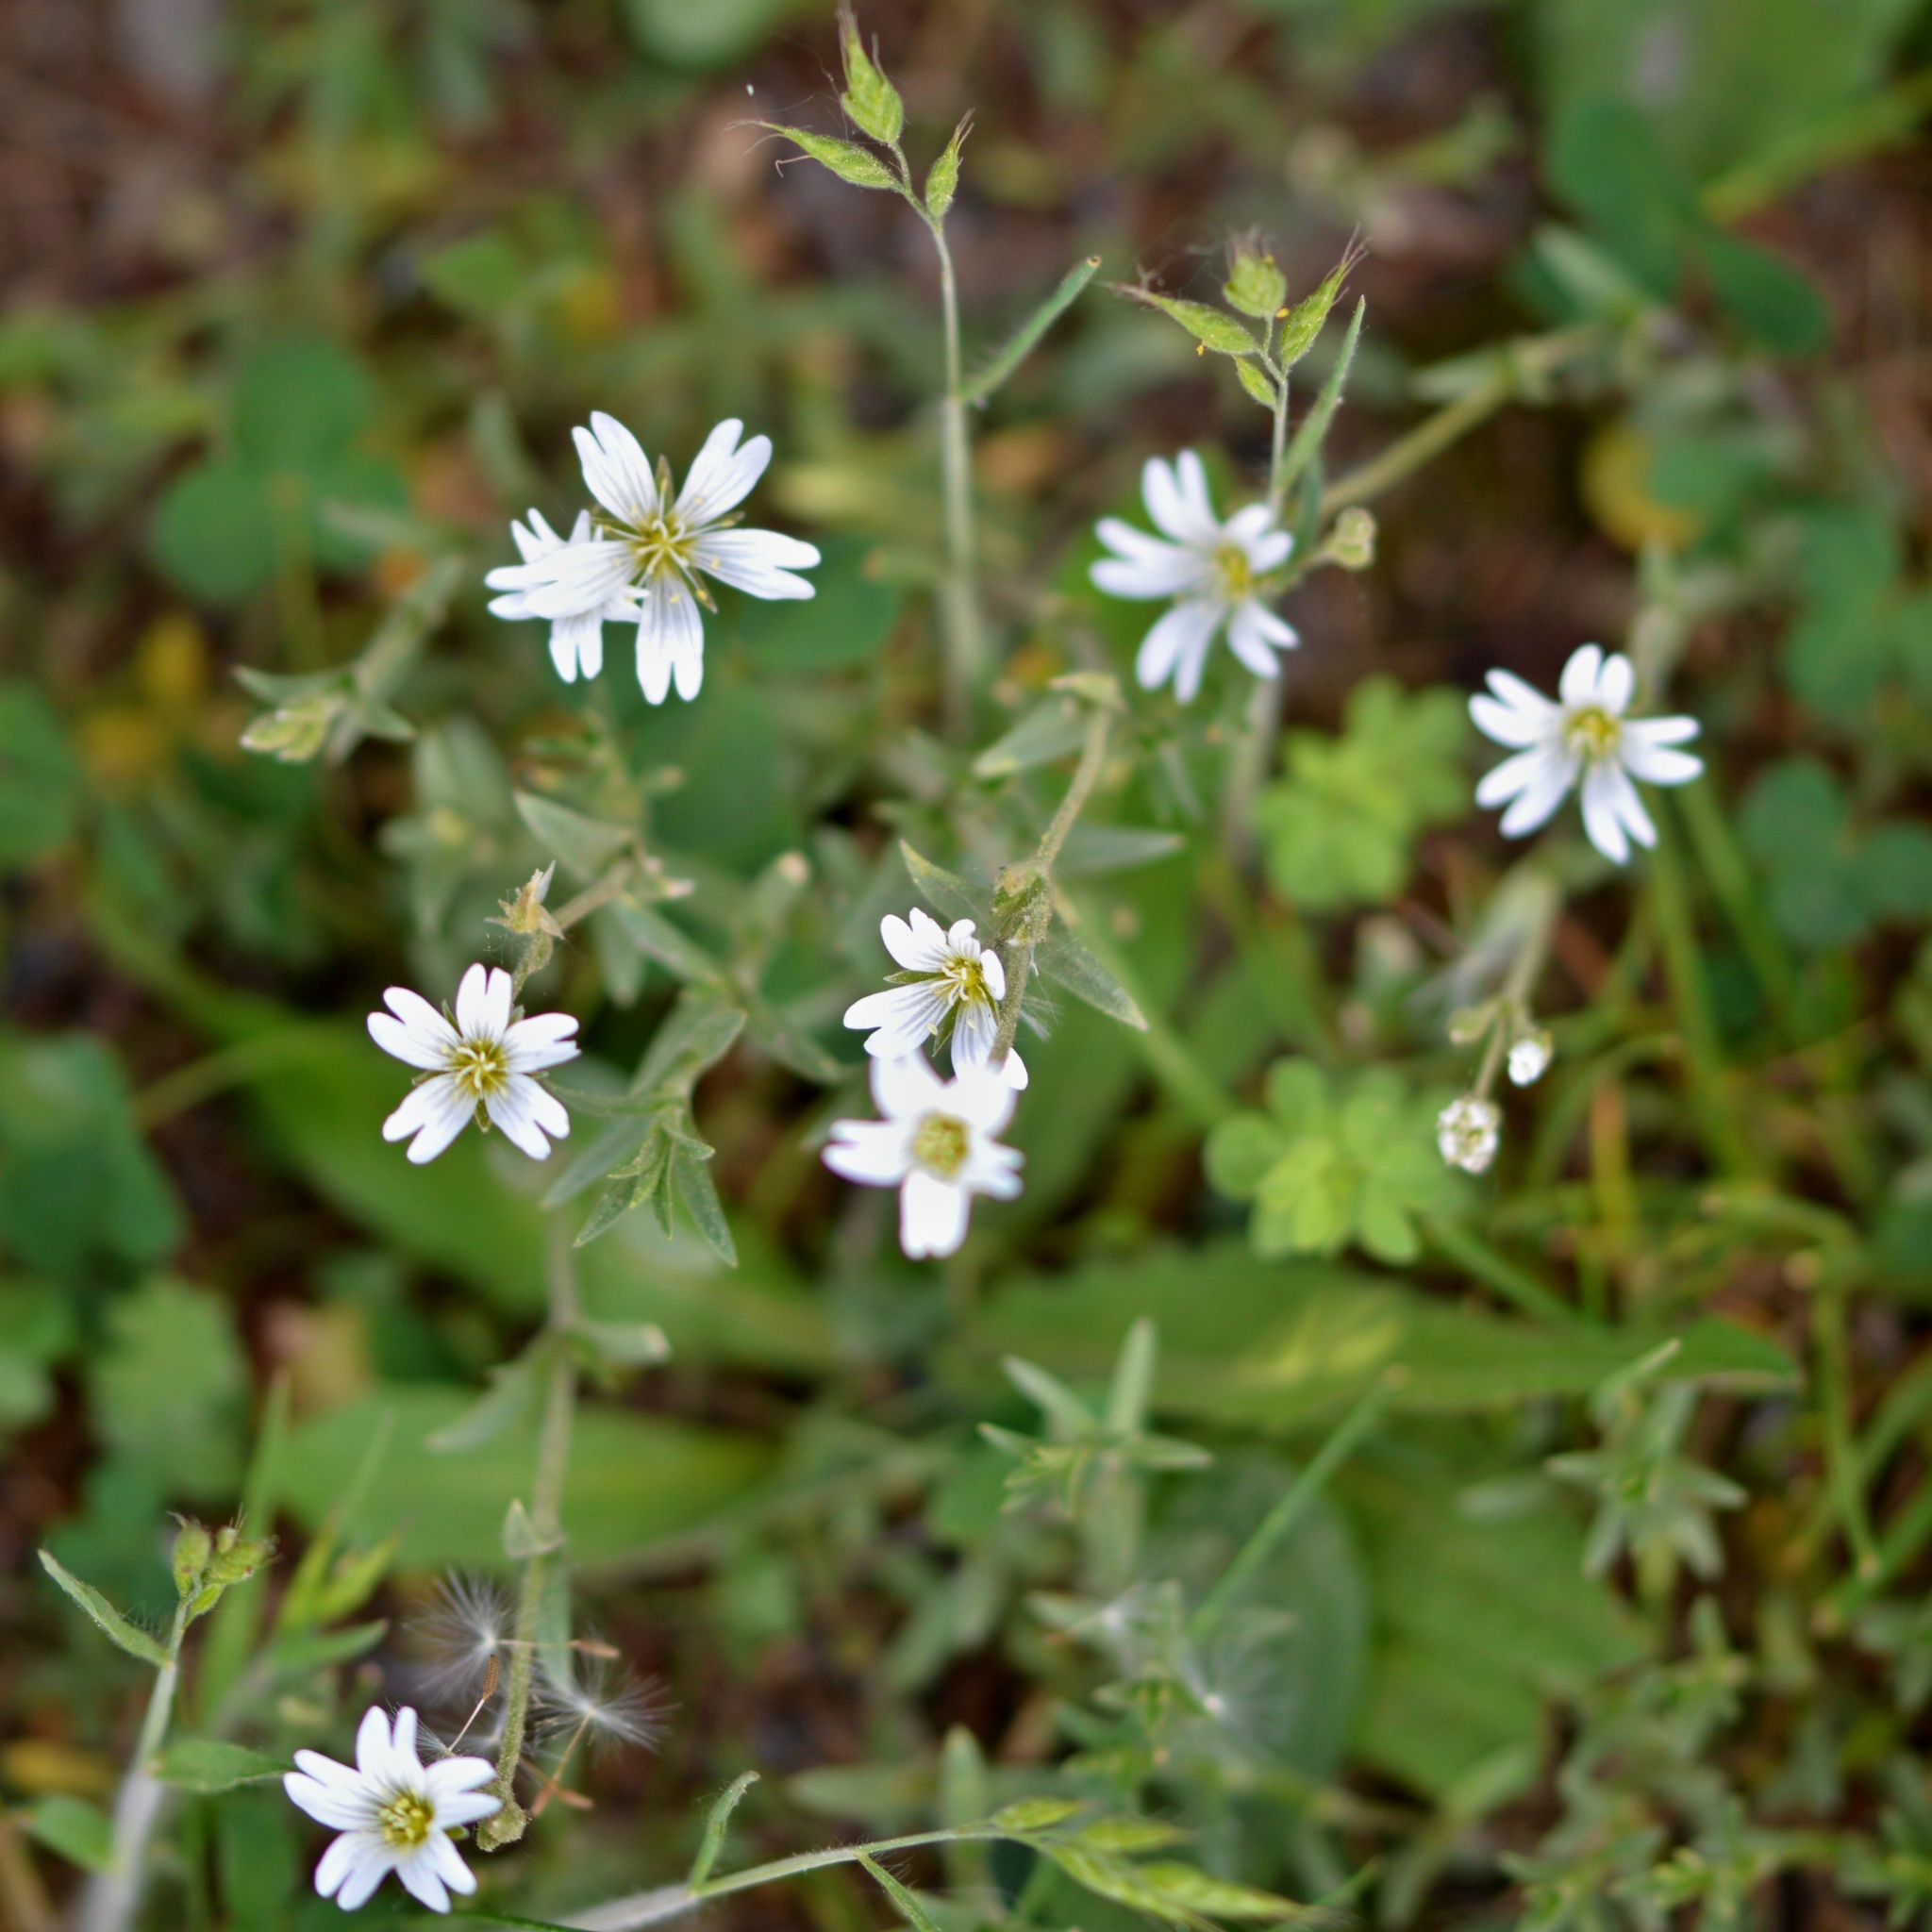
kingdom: Plantae
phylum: Tracheophyta
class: Magnoliopsida
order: Caryophyllales
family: Caryophyllaceae
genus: Cerastium
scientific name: Cerastium arvense
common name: Field mouse-ear
